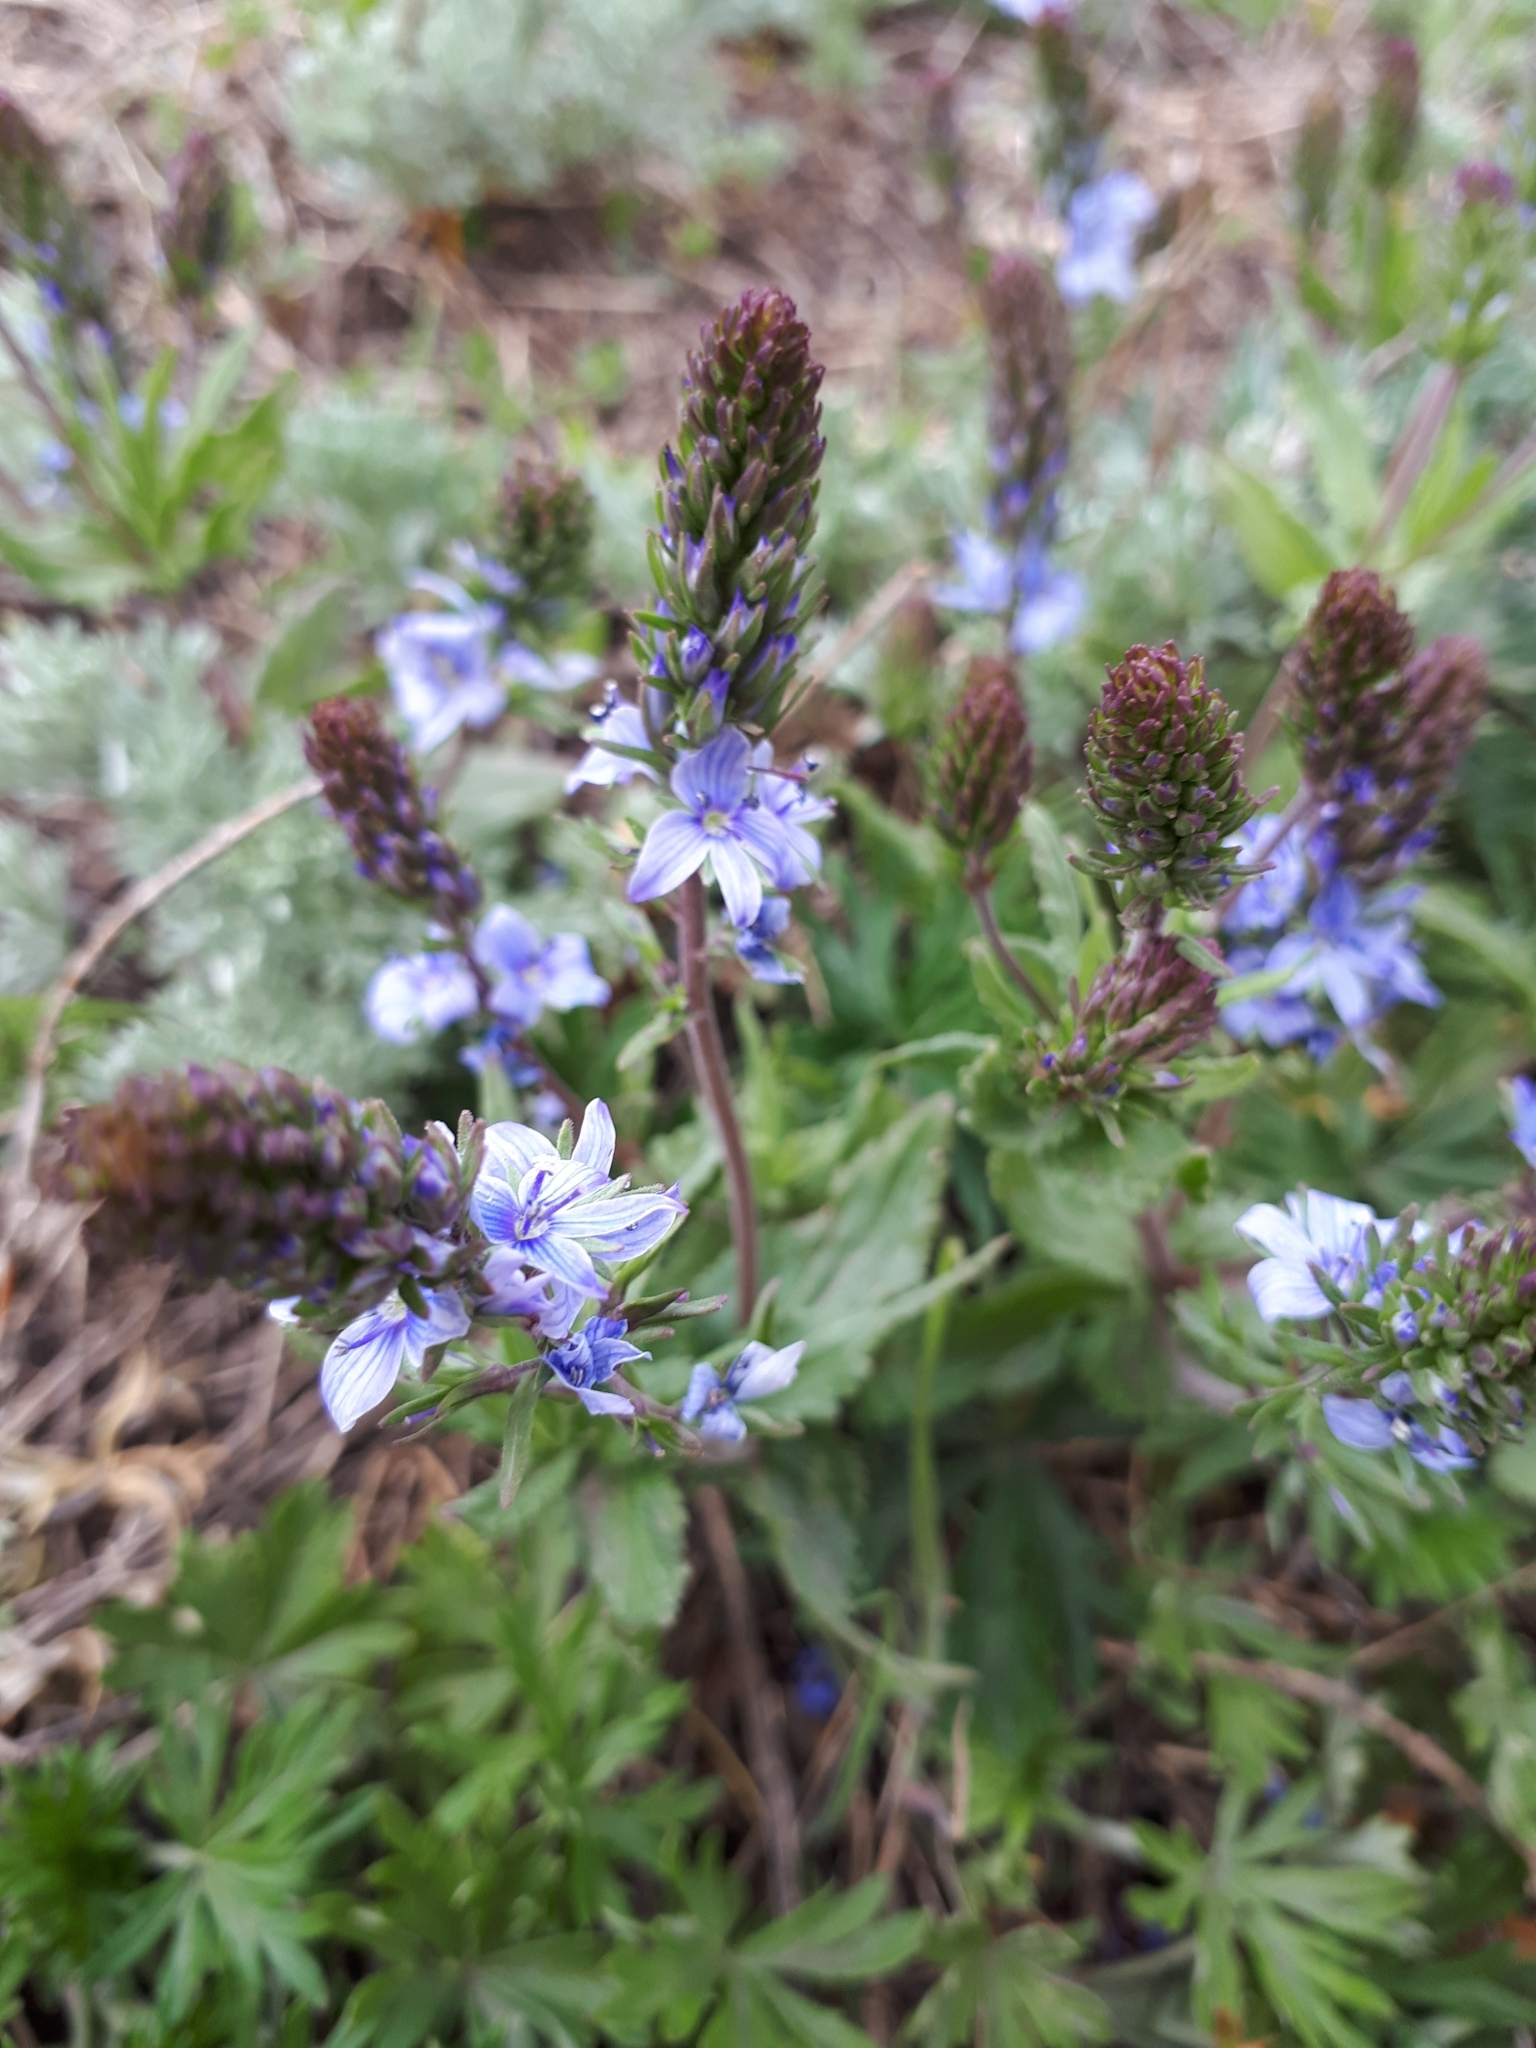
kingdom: Plantae
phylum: Tracheophyta
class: Magnoliopsida
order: Lamiales
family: Plantaginaceae
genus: Veronica
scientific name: Veronica prostrata
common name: Prostrate speedwell
